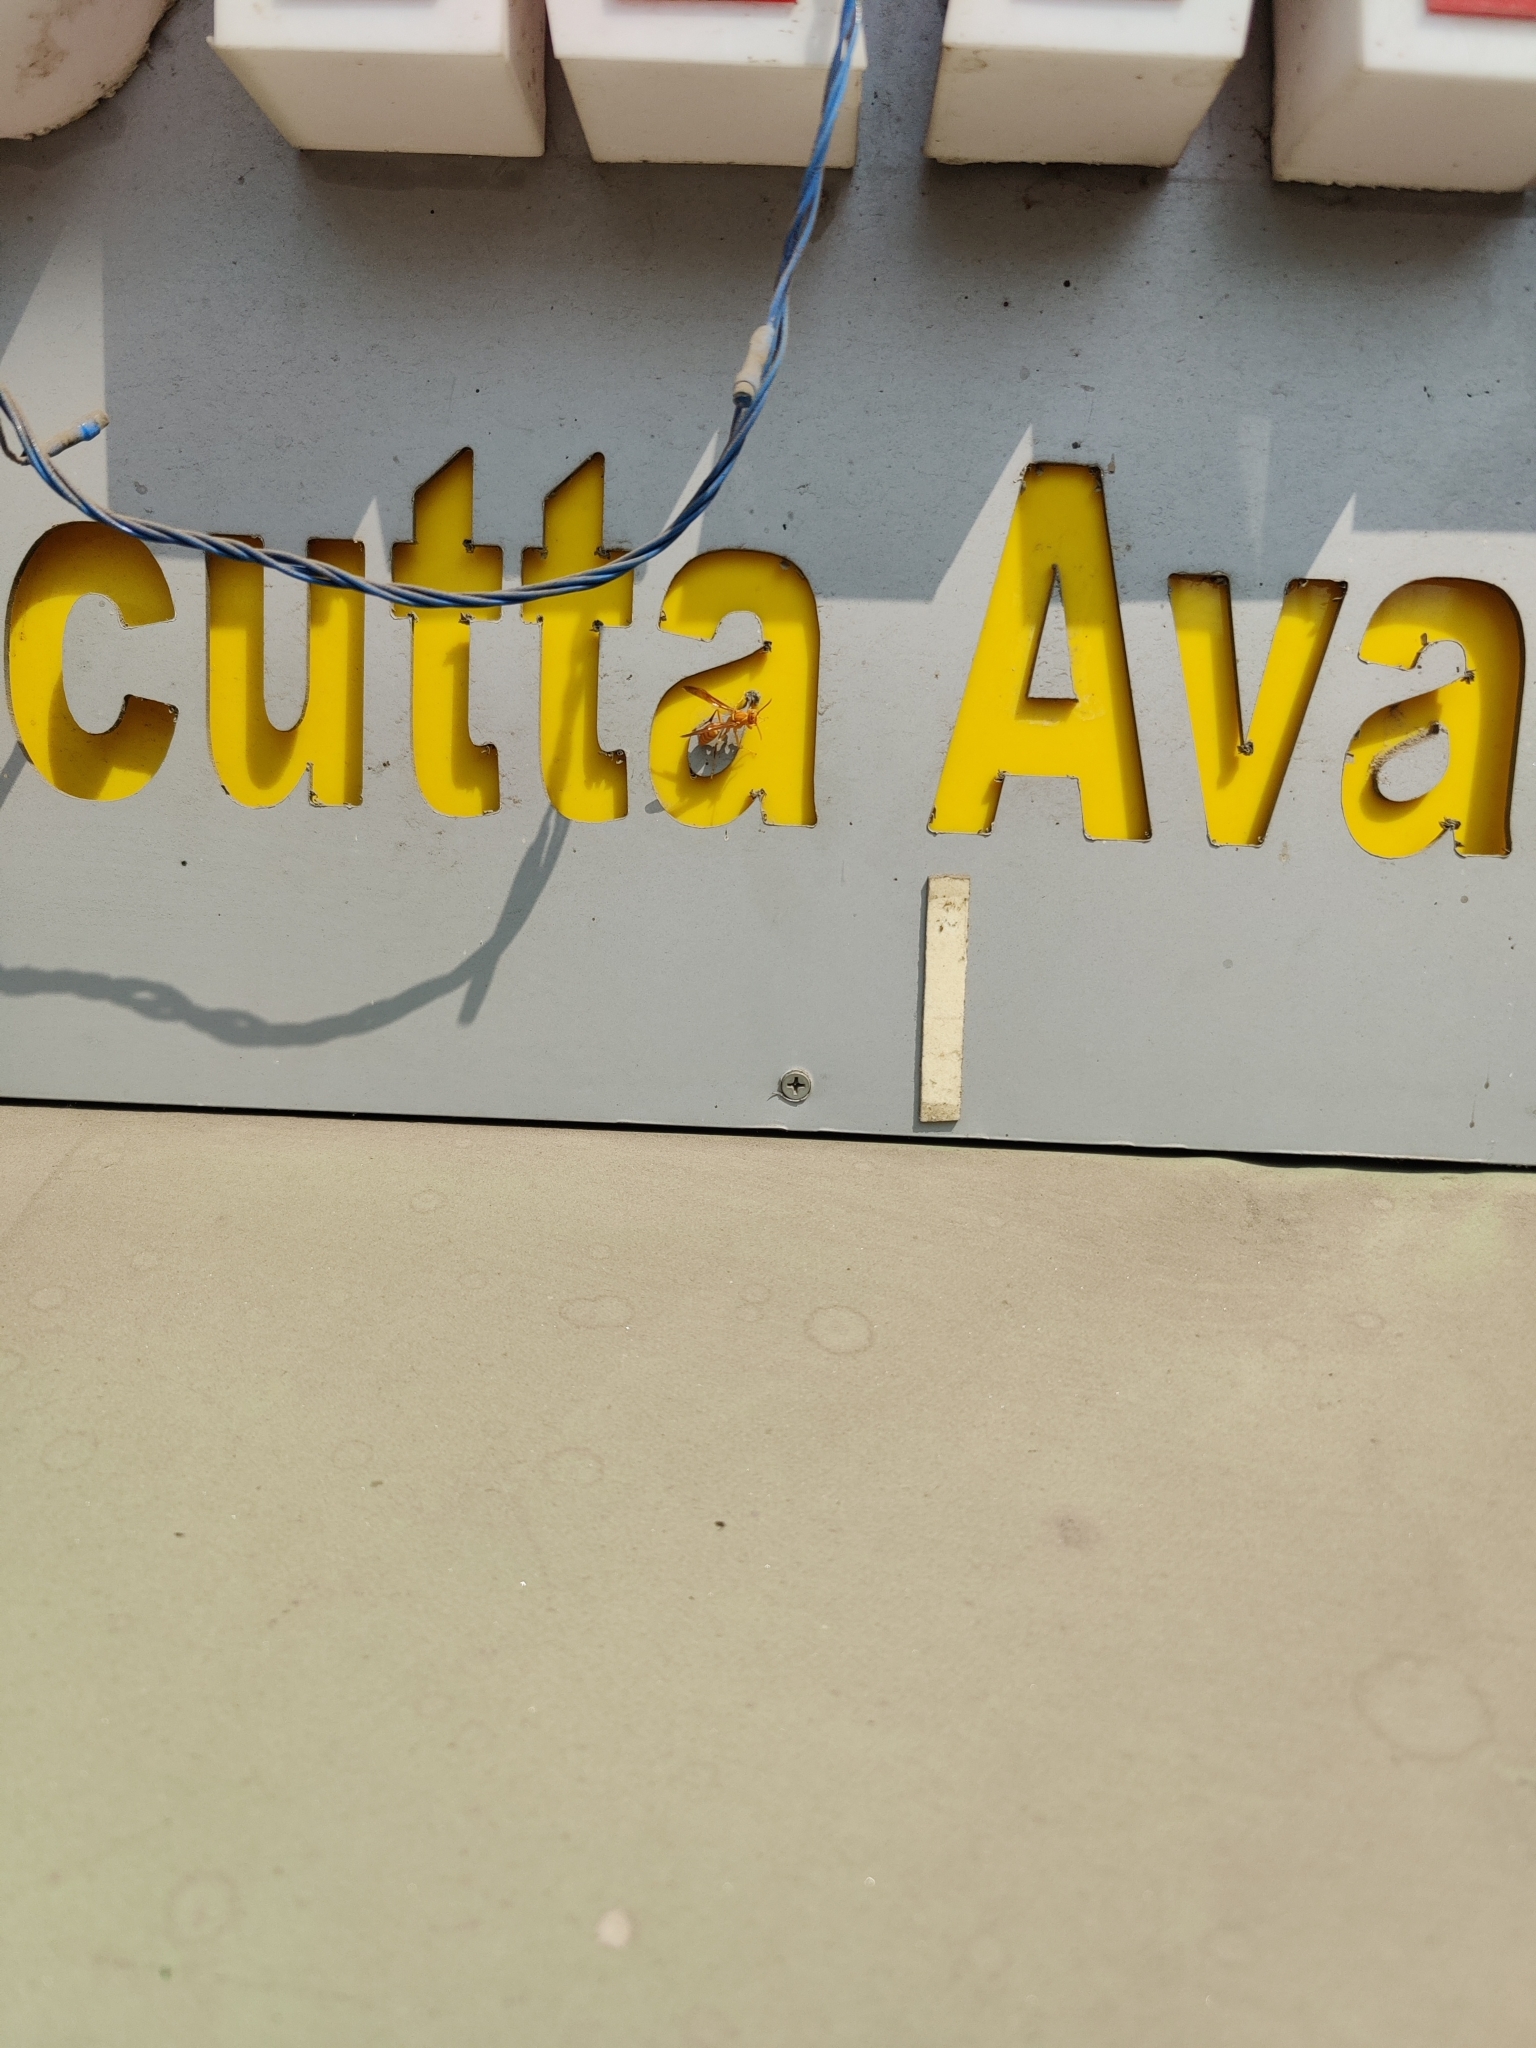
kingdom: Animalia
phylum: Arthropoda
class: Insecta
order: Hymenoptera
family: Eumenidae
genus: Polistes
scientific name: Polistes wattii
